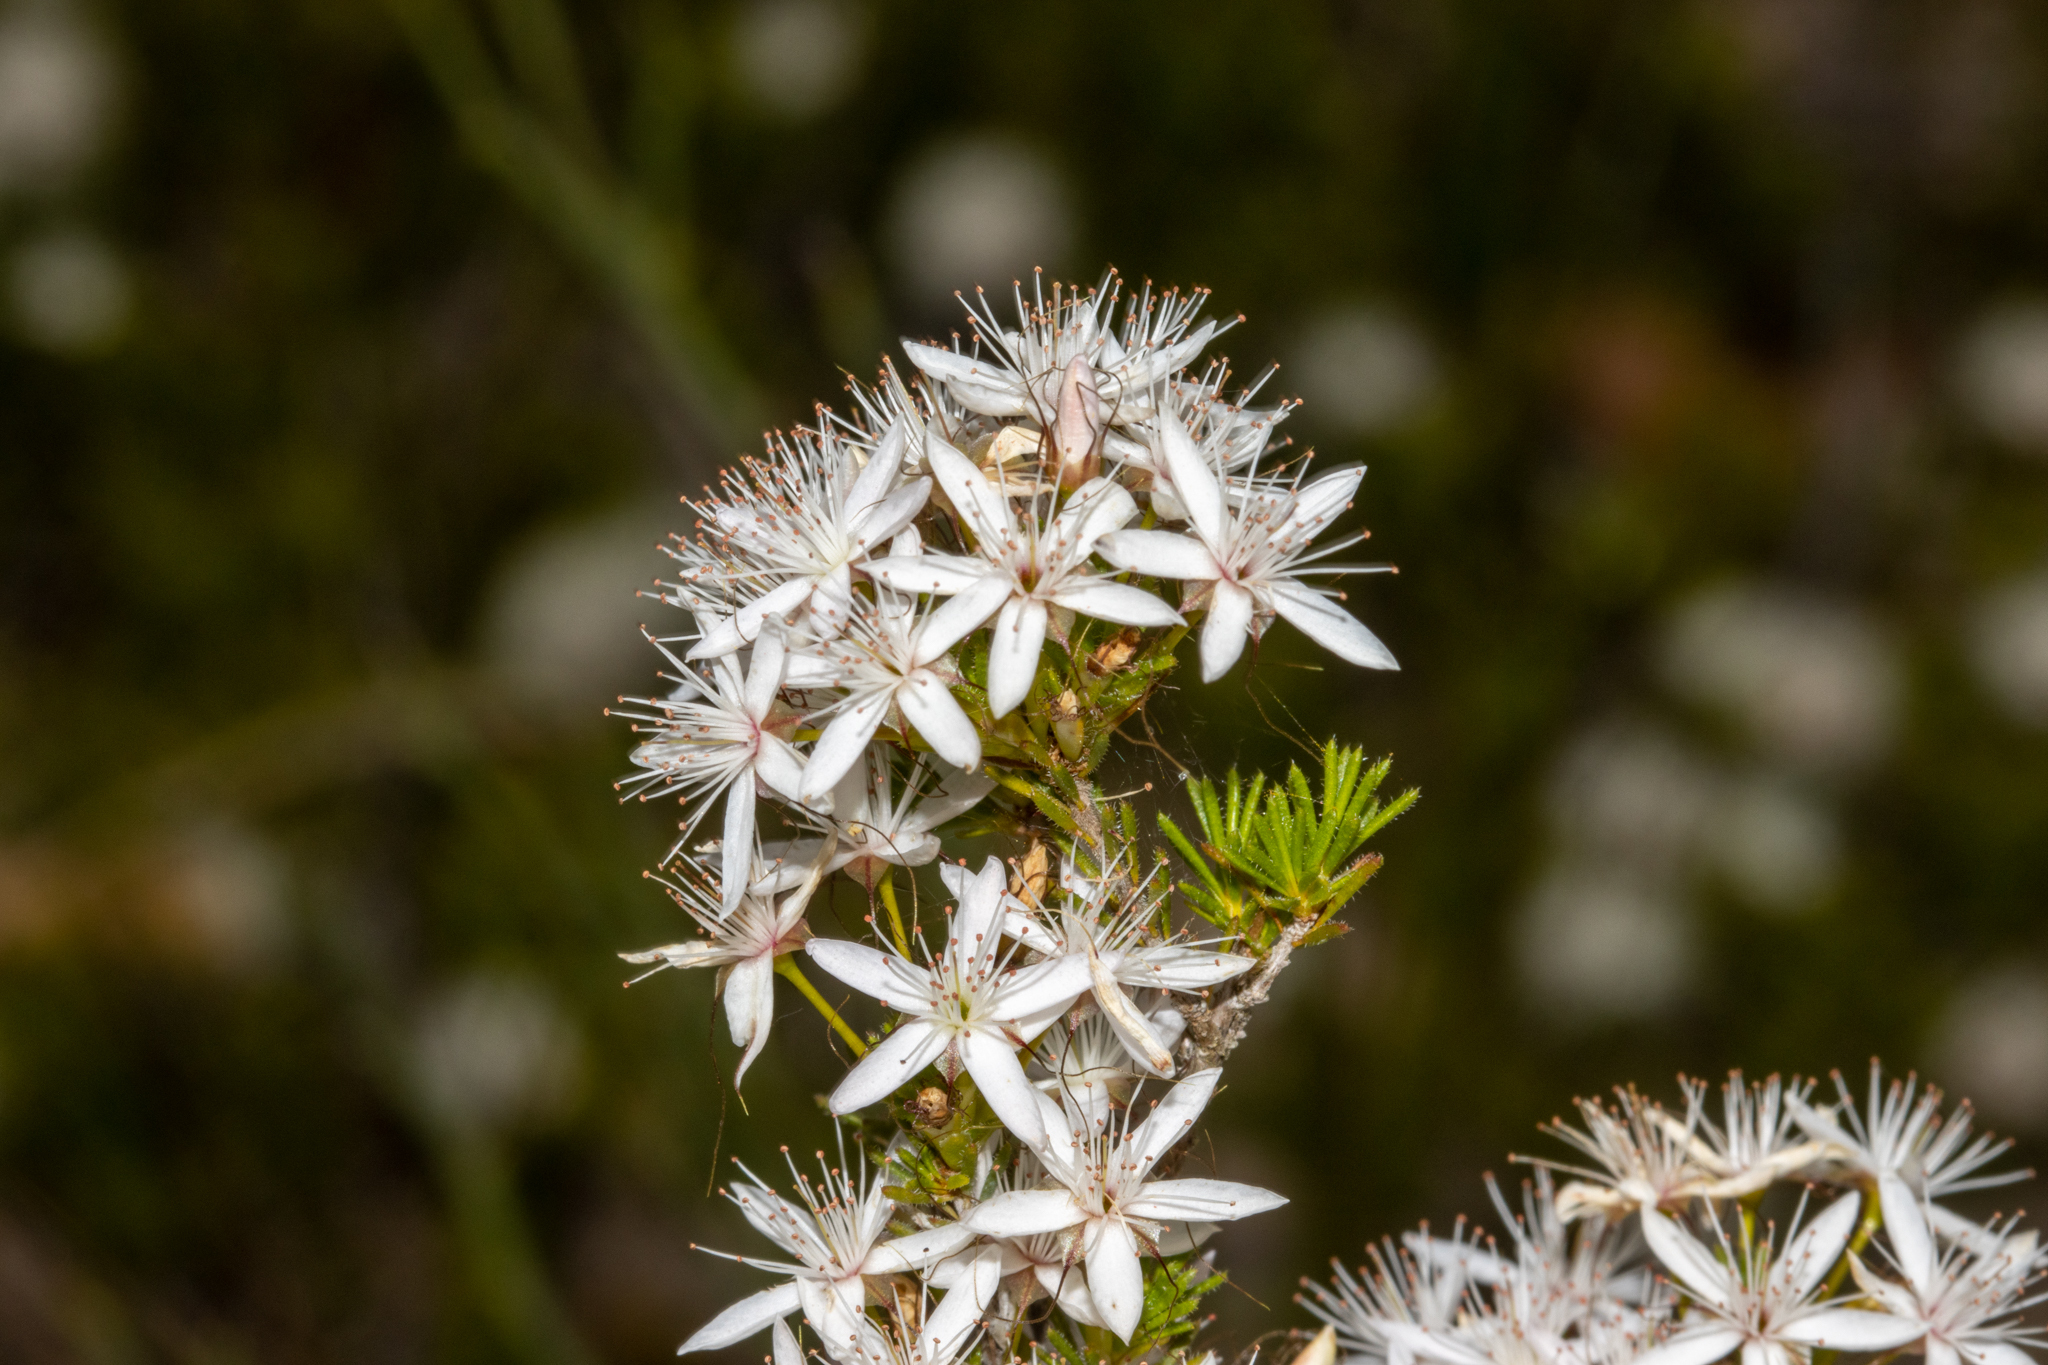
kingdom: Plantae
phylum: Tracheophyta
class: Magnoliopsida
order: Myrtales
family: Myrtaceae
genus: Calytrix
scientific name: Calytrix tetragona
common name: Common fringe myrtle
